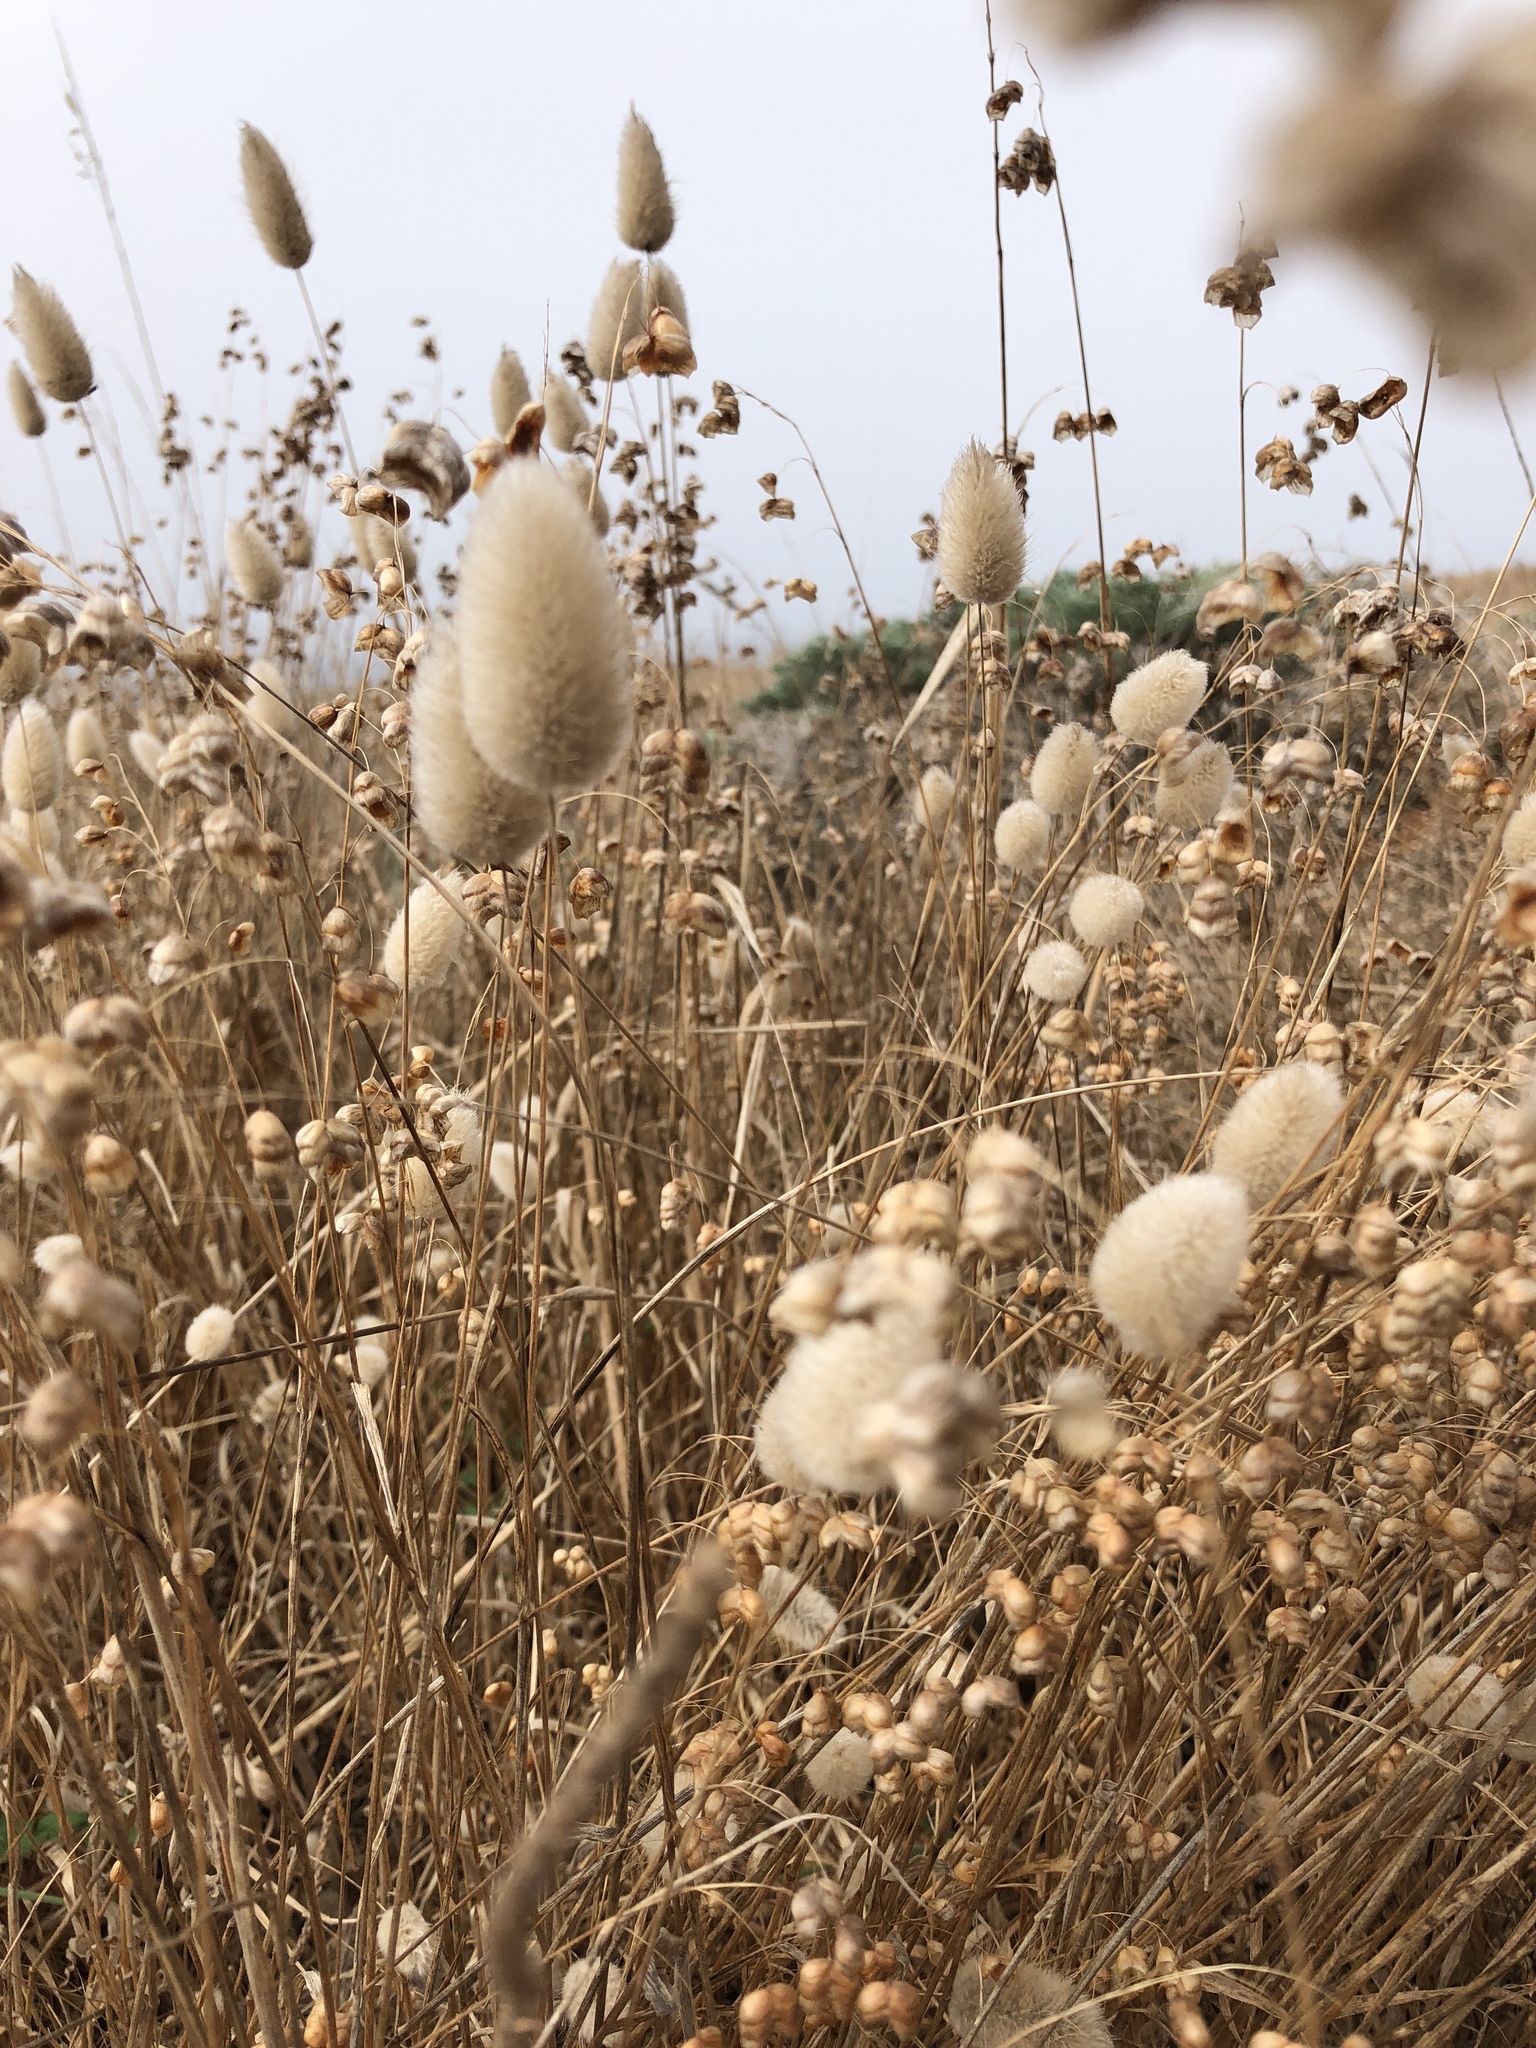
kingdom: Plantae
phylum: Tracheophyta
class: Liliopsida
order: Poales
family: Poaceae
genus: Lagurus
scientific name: Lagurus ovatus
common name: Hare's-tail
